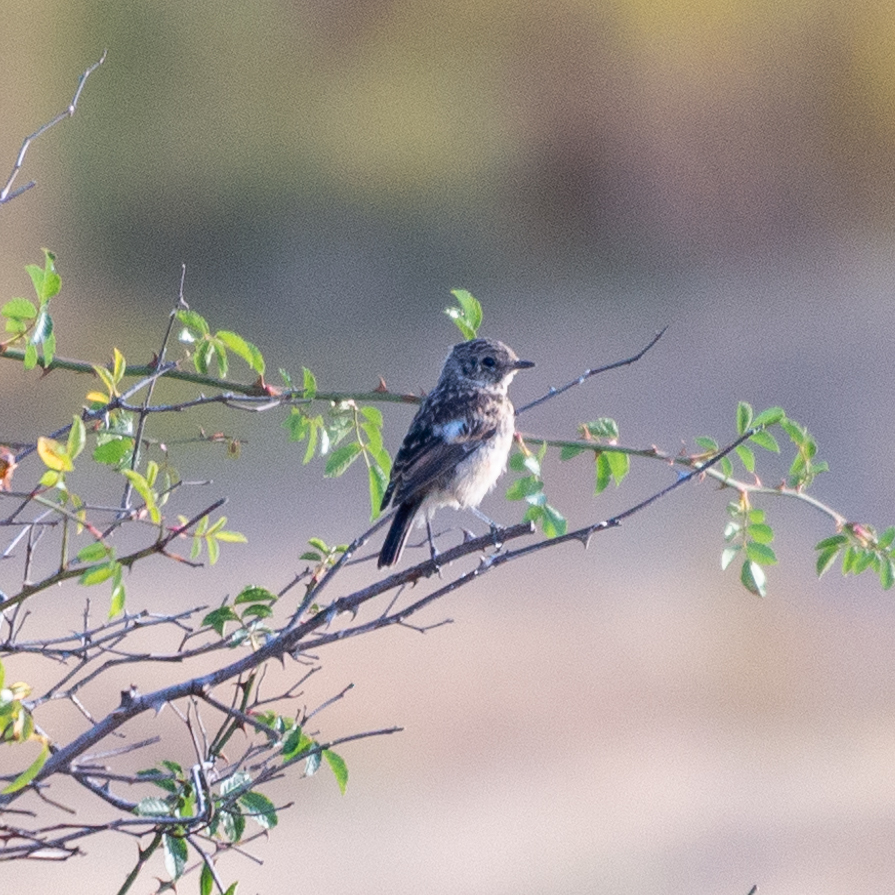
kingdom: Animalia
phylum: Chordata
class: Aves
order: Passeriformes
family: Muscicapidae
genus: Saxicola
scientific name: Saxicola rubicola
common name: European stonechat
